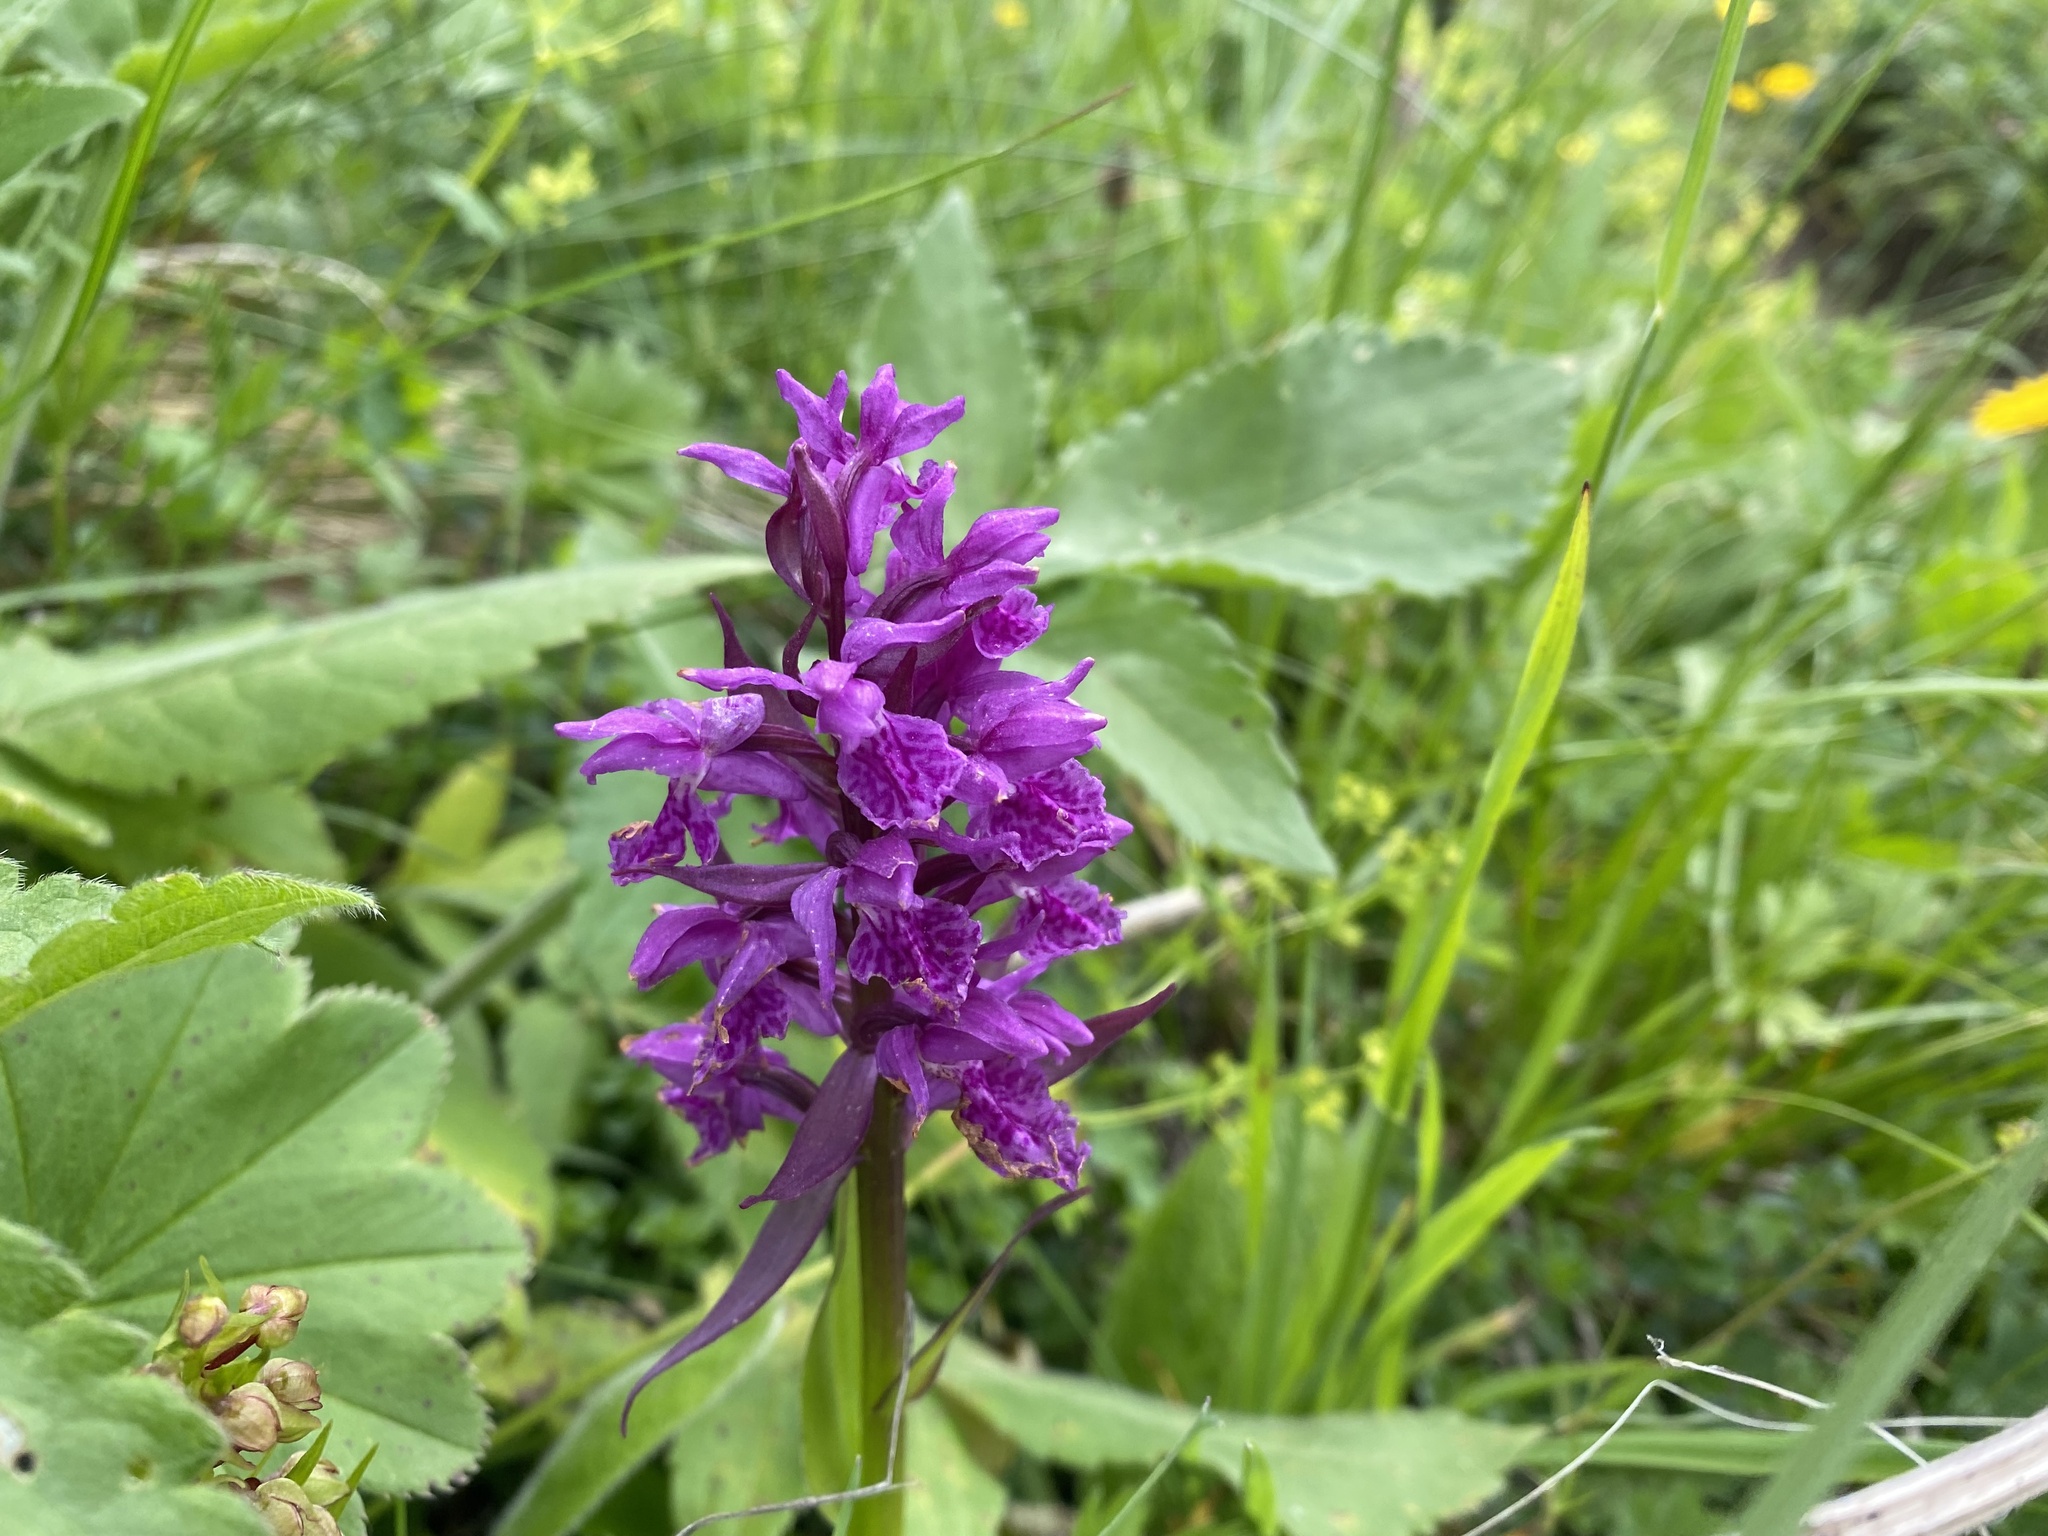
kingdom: Plantae
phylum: Tracheophyta
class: Liliopsida
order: Asparagales
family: Orchidaceae
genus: Dactylorhiza
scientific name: Dactylorhiza euxina
